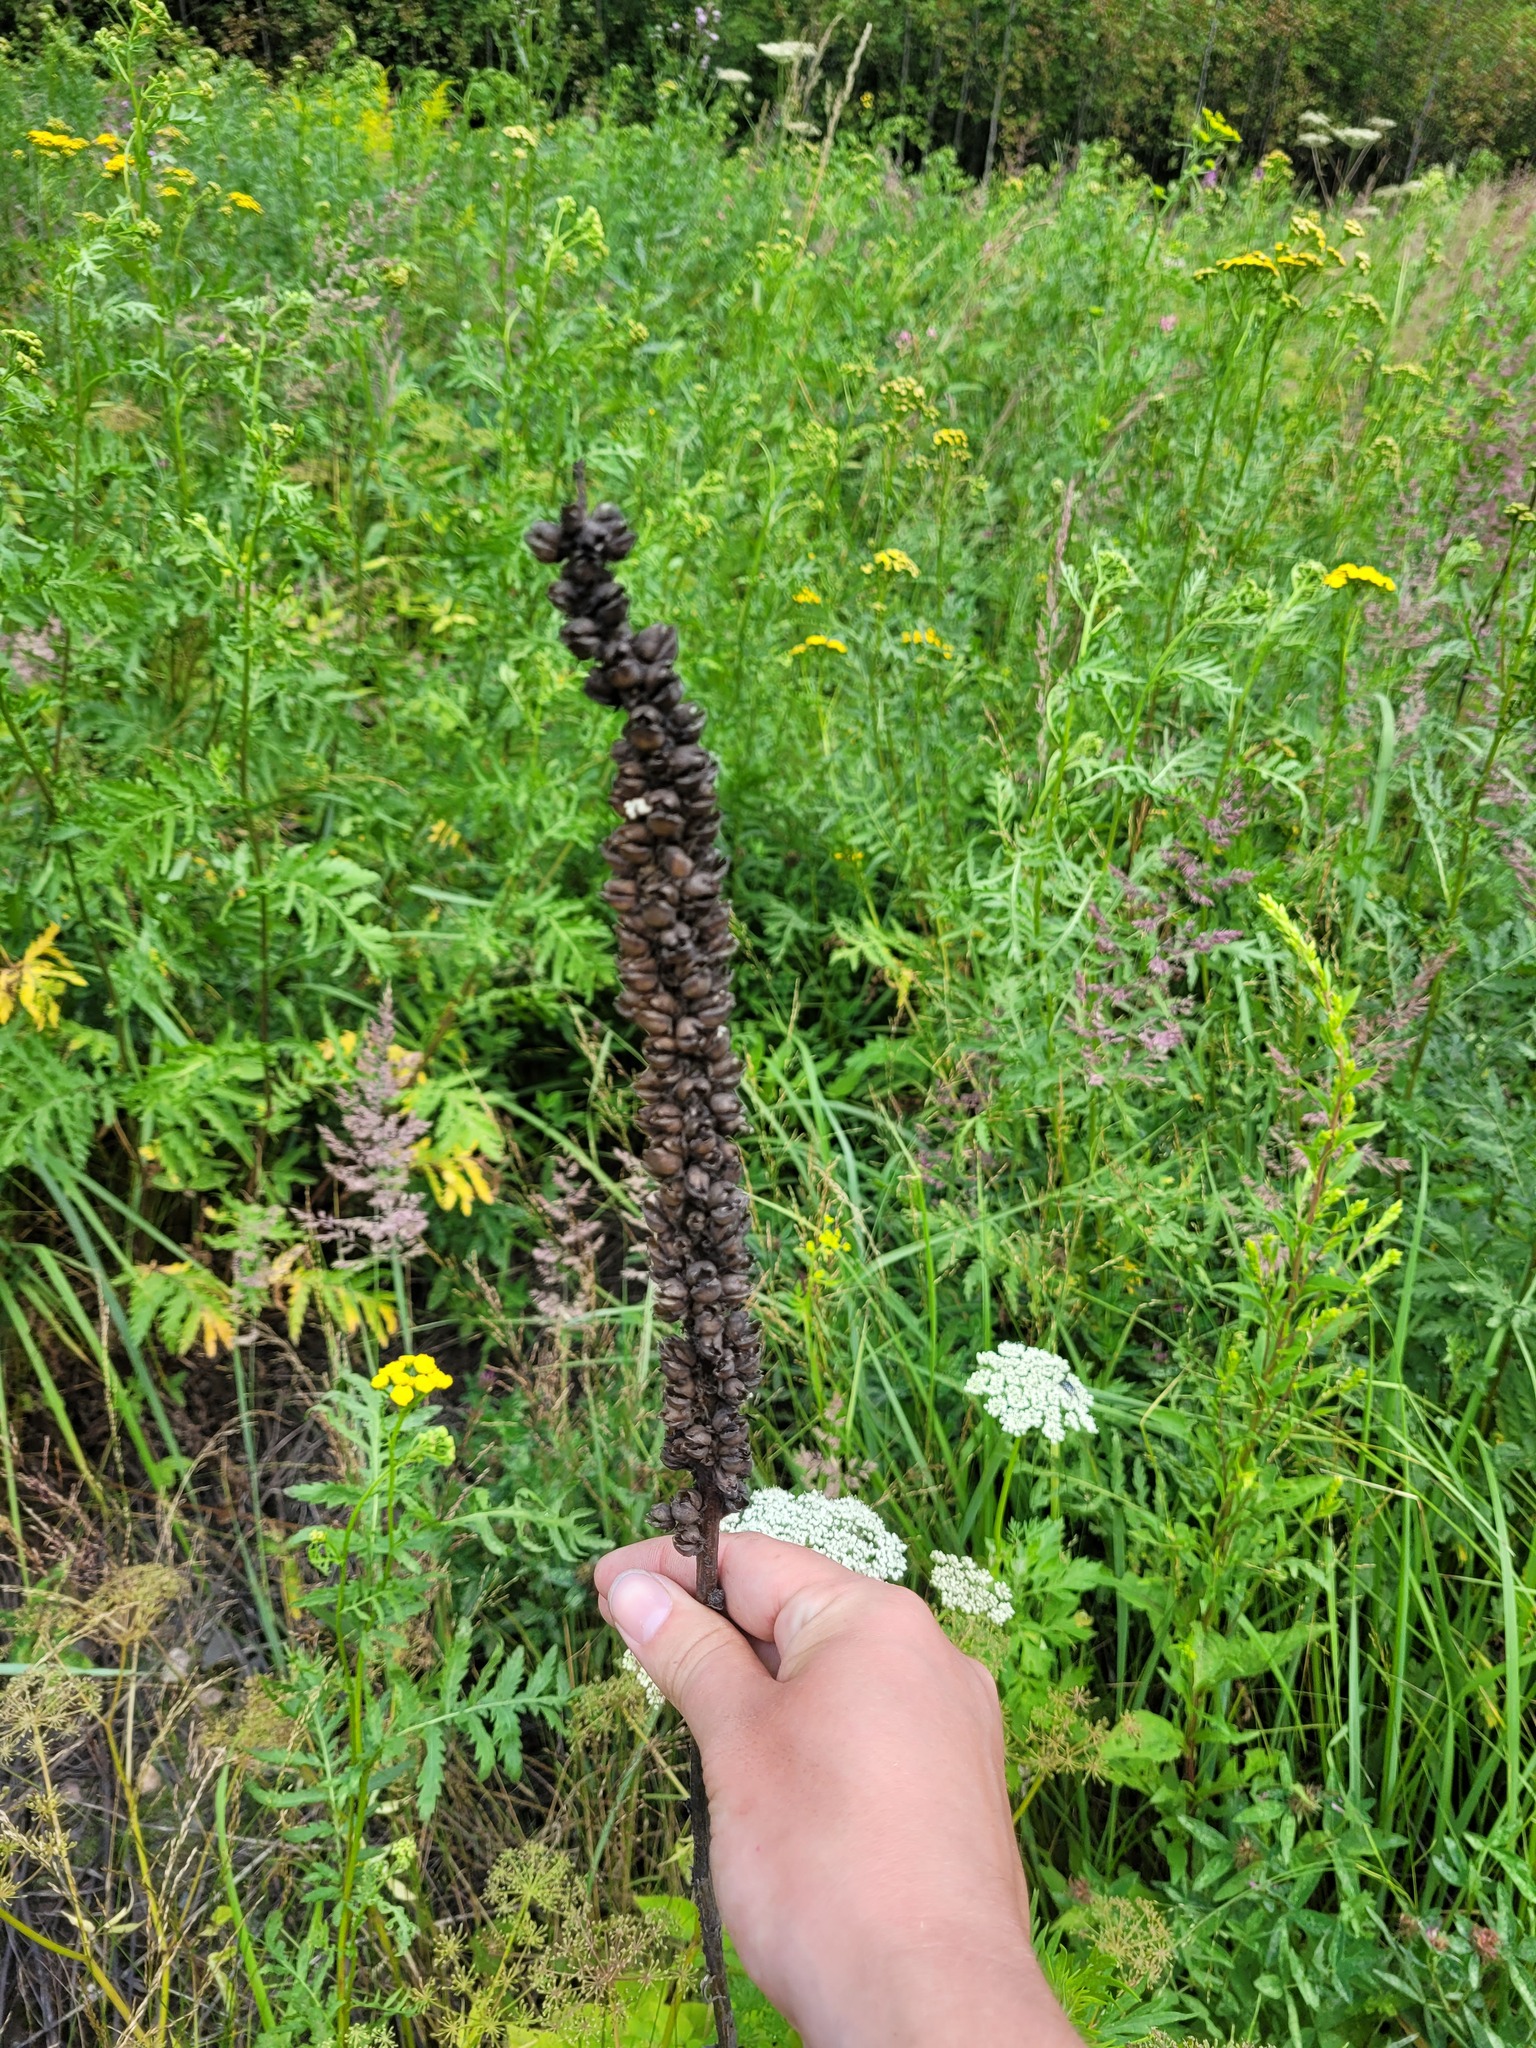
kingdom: Plantae
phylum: Tracheophyta
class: Magnoliopsida
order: Lamiales
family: Scrophulariaceae
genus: Verbascum
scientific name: Verbascum thapsus
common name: Common mullein
